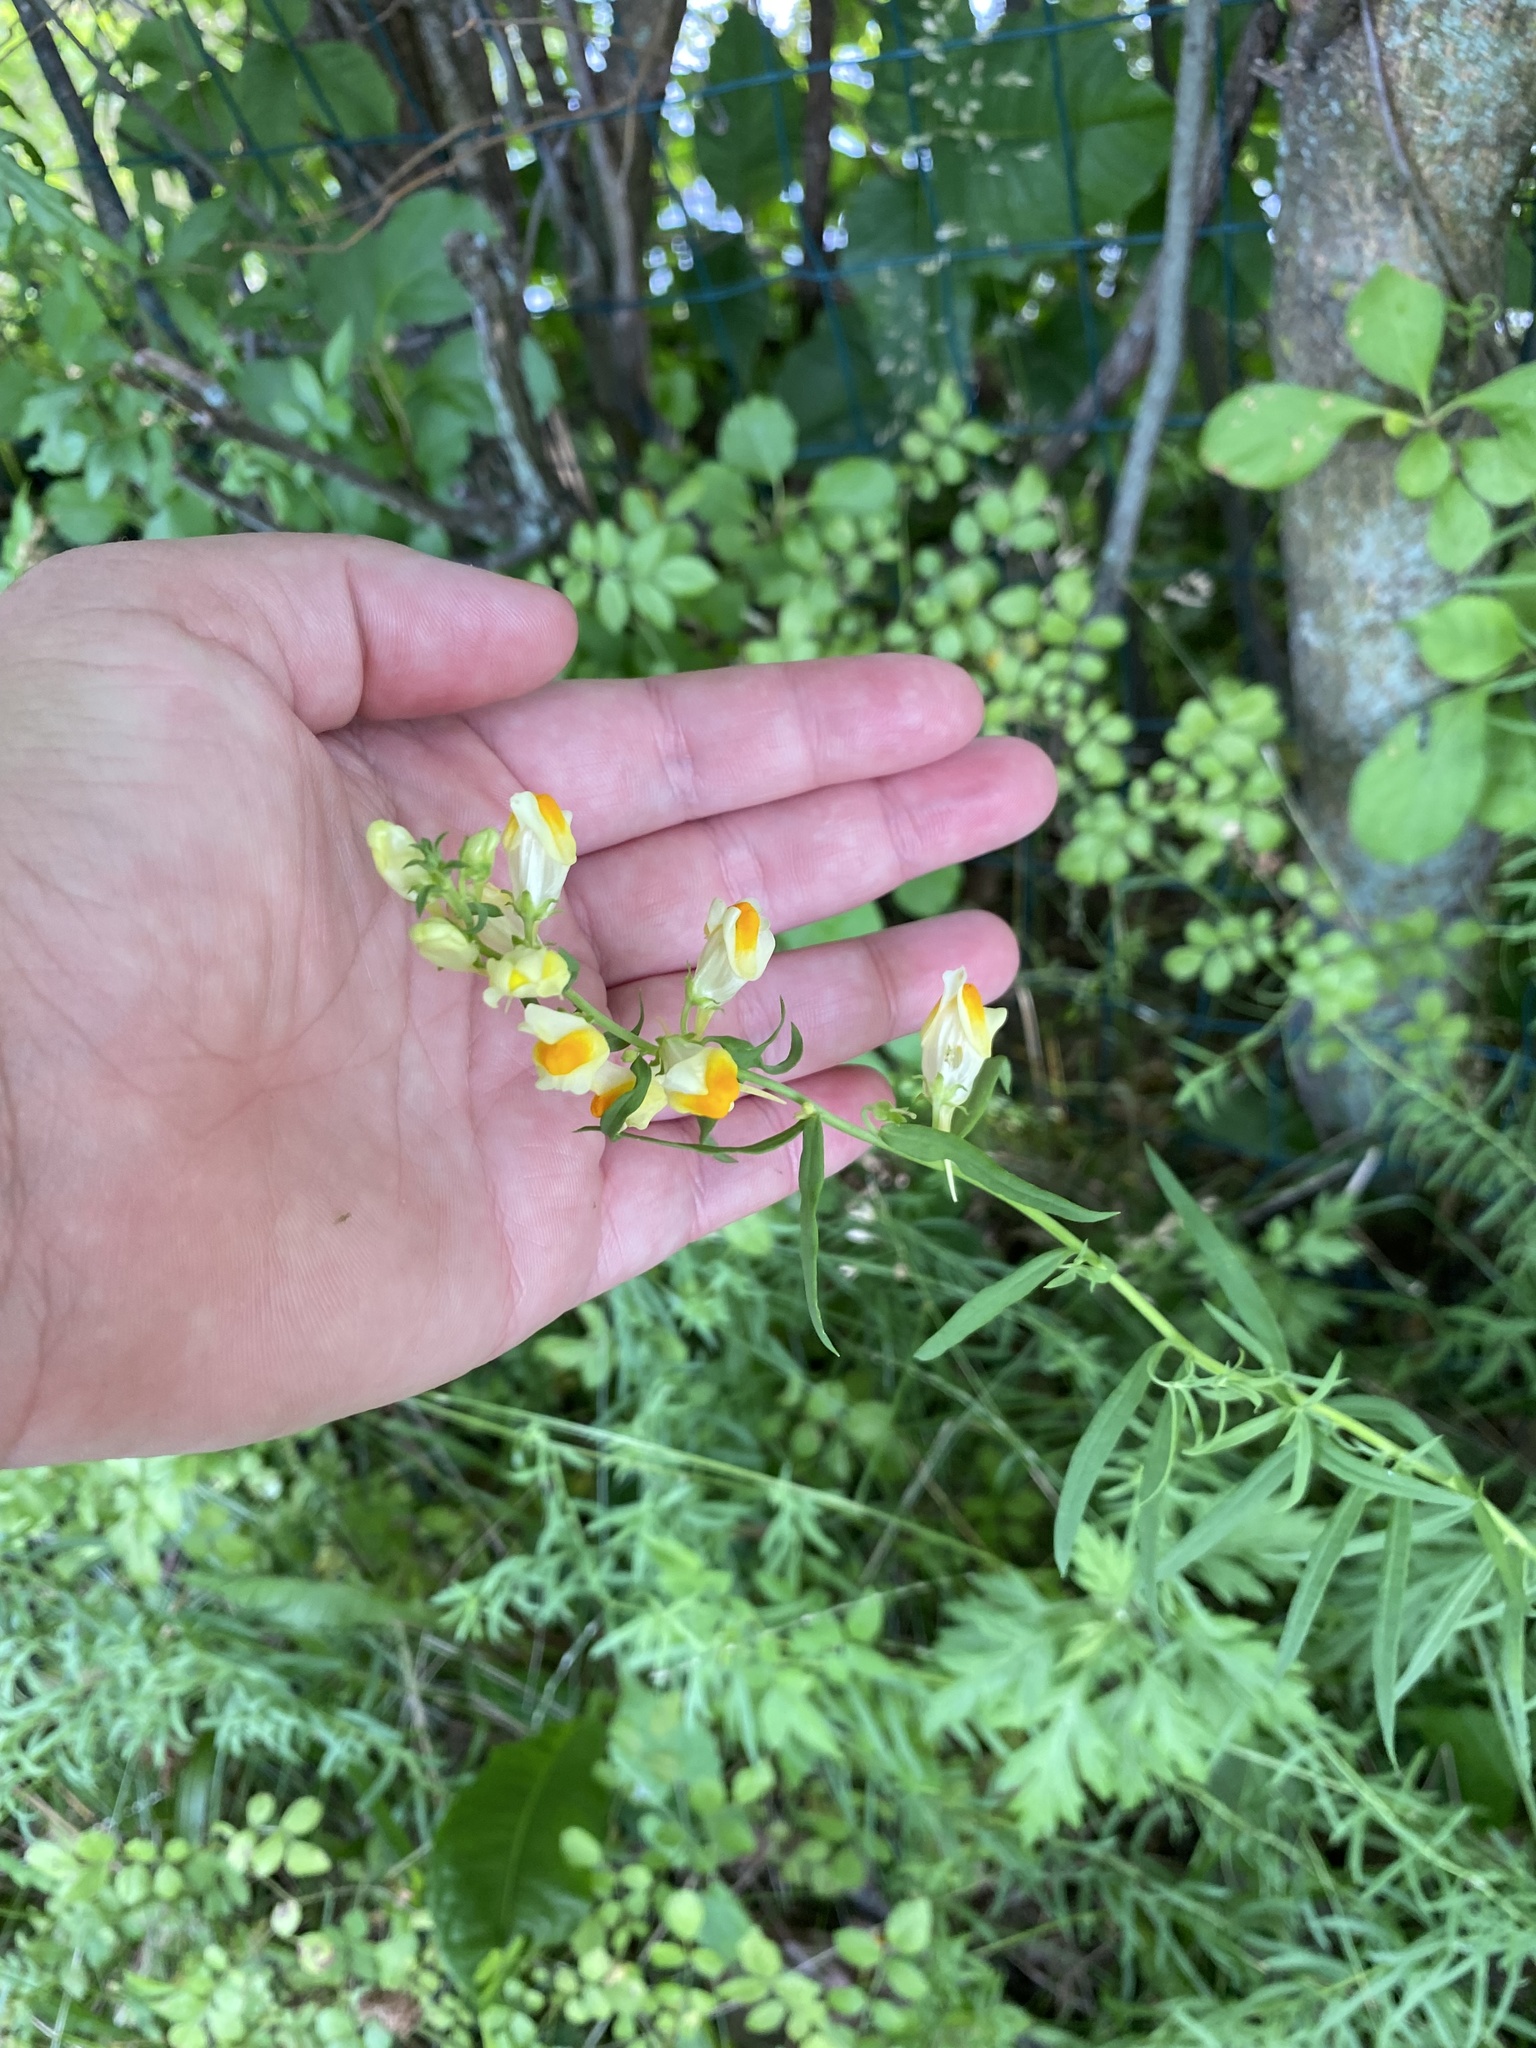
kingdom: Plantae
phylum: Tracheophyta
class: Magnoliopsida
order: Lamiales
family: Plantaginaceae
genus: Linaria
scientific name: Linaria vulgaris
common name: Butter and eggs
